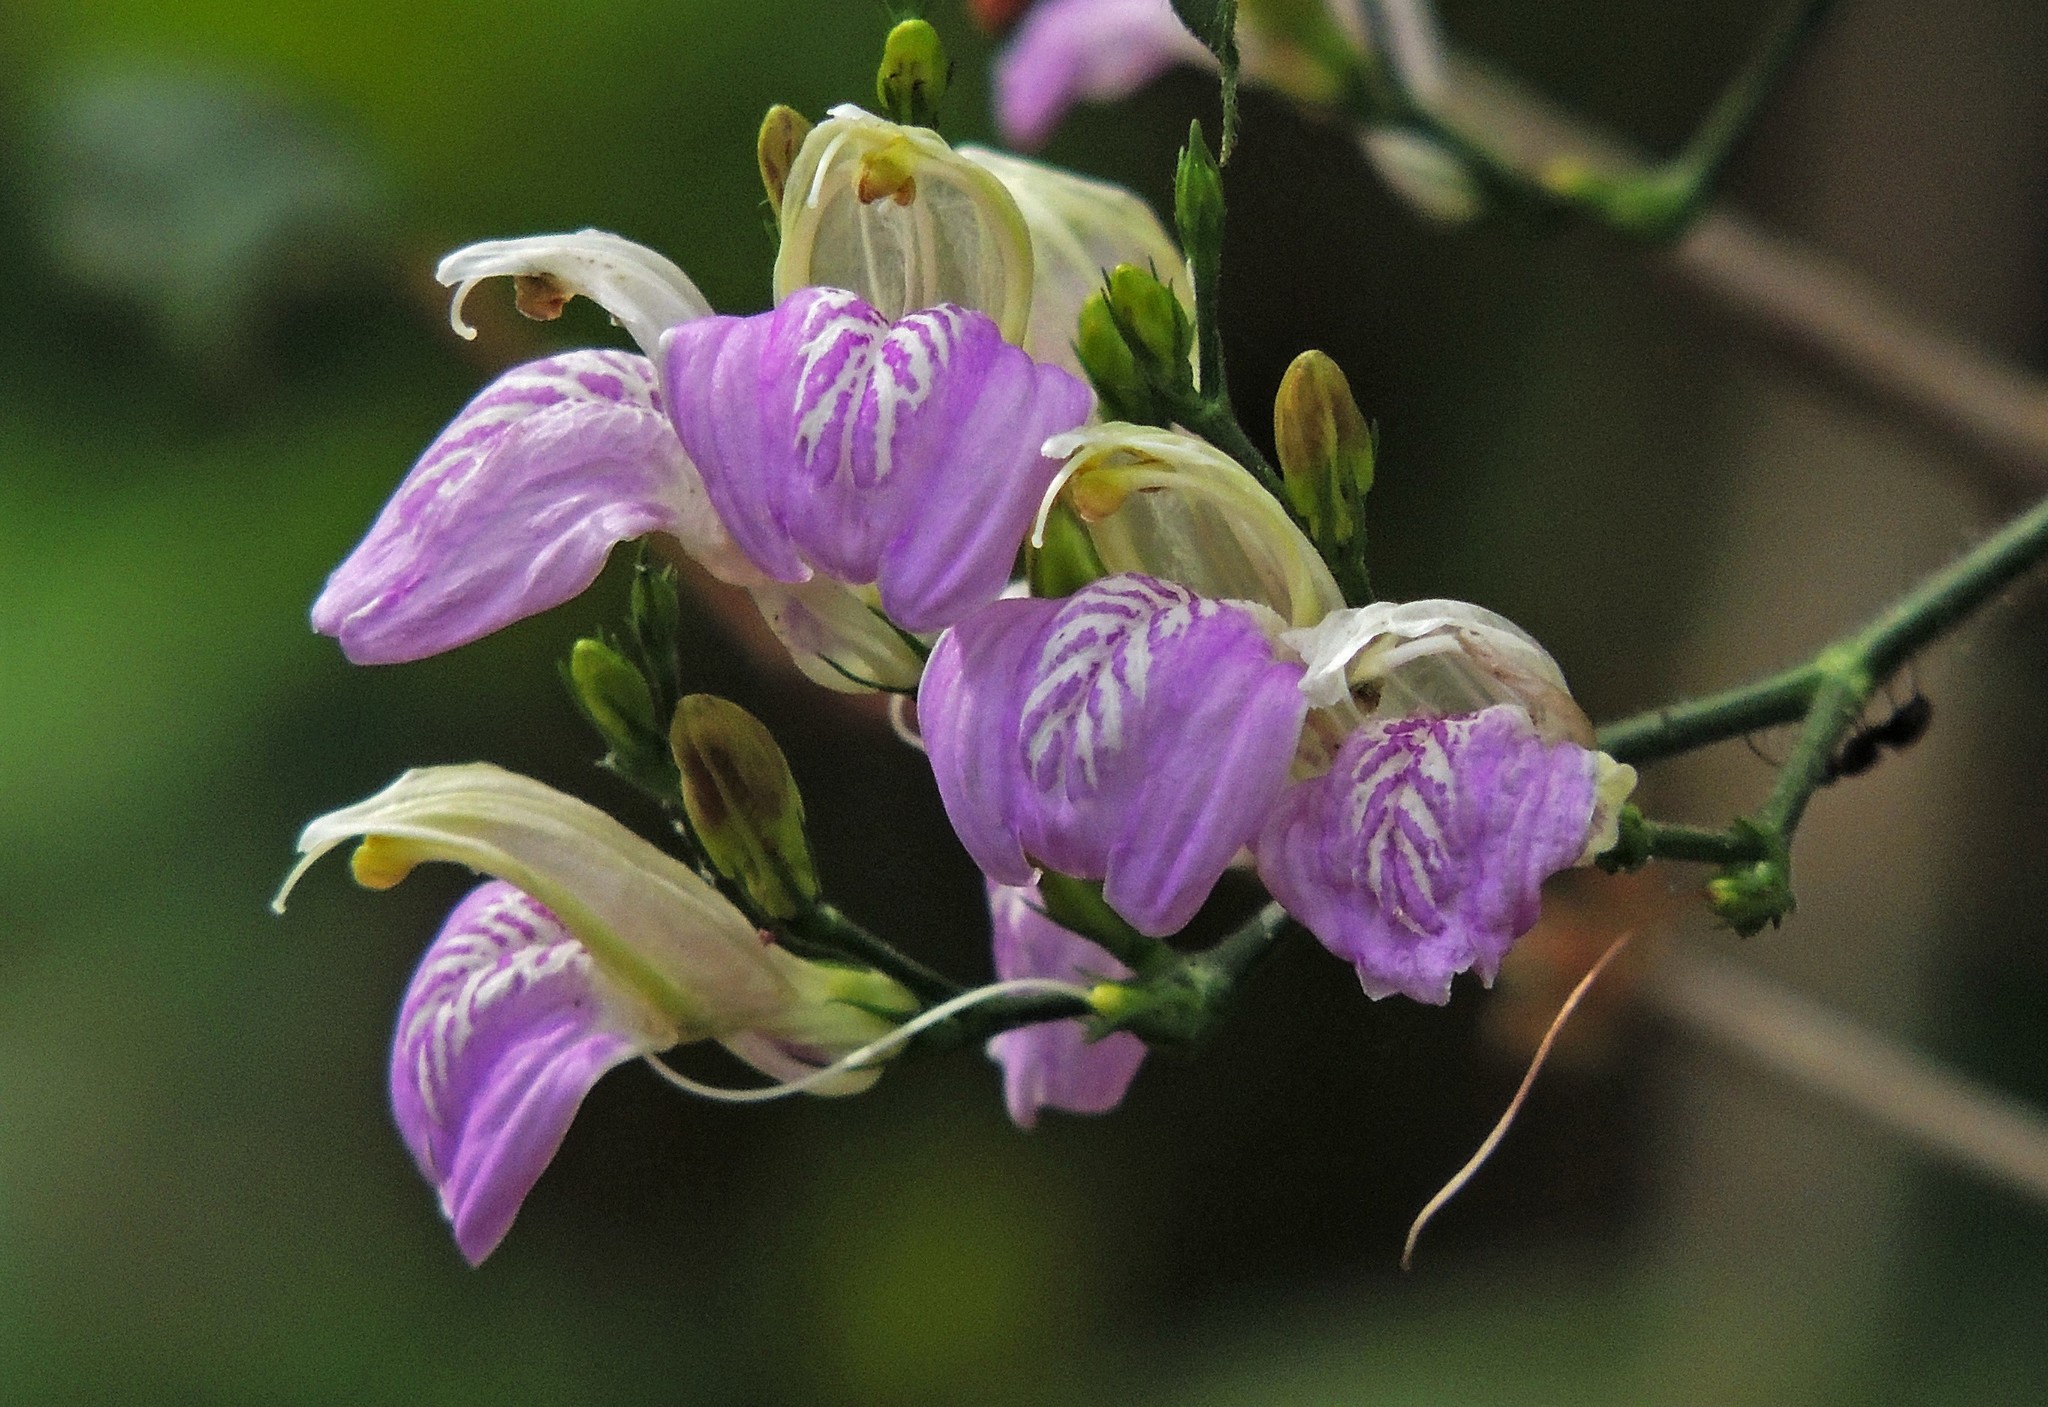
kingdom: Plantae
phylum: Tracheophyta
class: Magnoliopsida
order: Lamiales
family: Acanthaceae
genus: Justicia
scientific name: Justicia kuntzei
